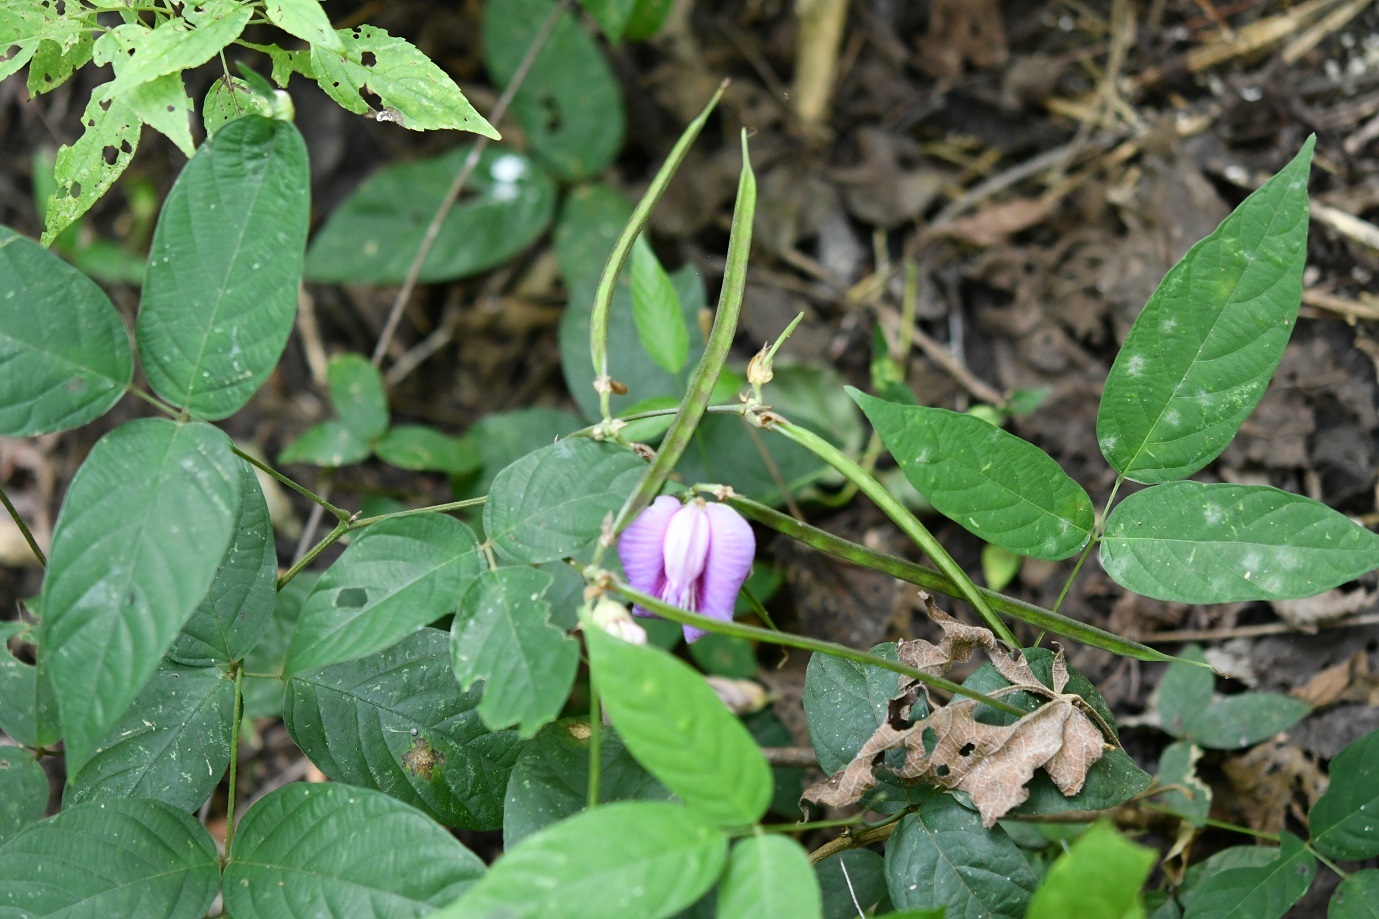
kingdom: Plantae
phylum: Tracheophyta
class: Magnoliopsida
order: Fabales
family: Fabaceae
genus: Centrosema
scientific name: Centrosema virginianum
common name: Butterfly-pea
